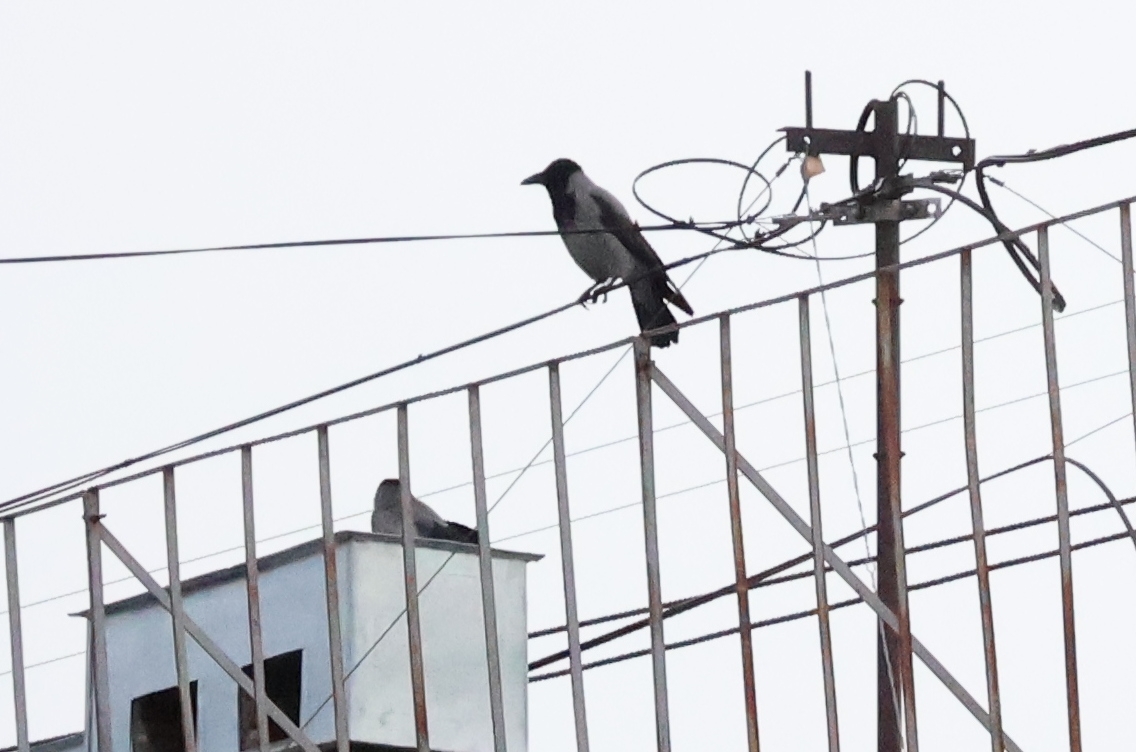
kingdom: Animalia
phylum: Chordata
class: Aves
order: Charadriiformes
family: Laridae
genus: Larus
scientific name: Larus argentatus
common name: Herring gull
